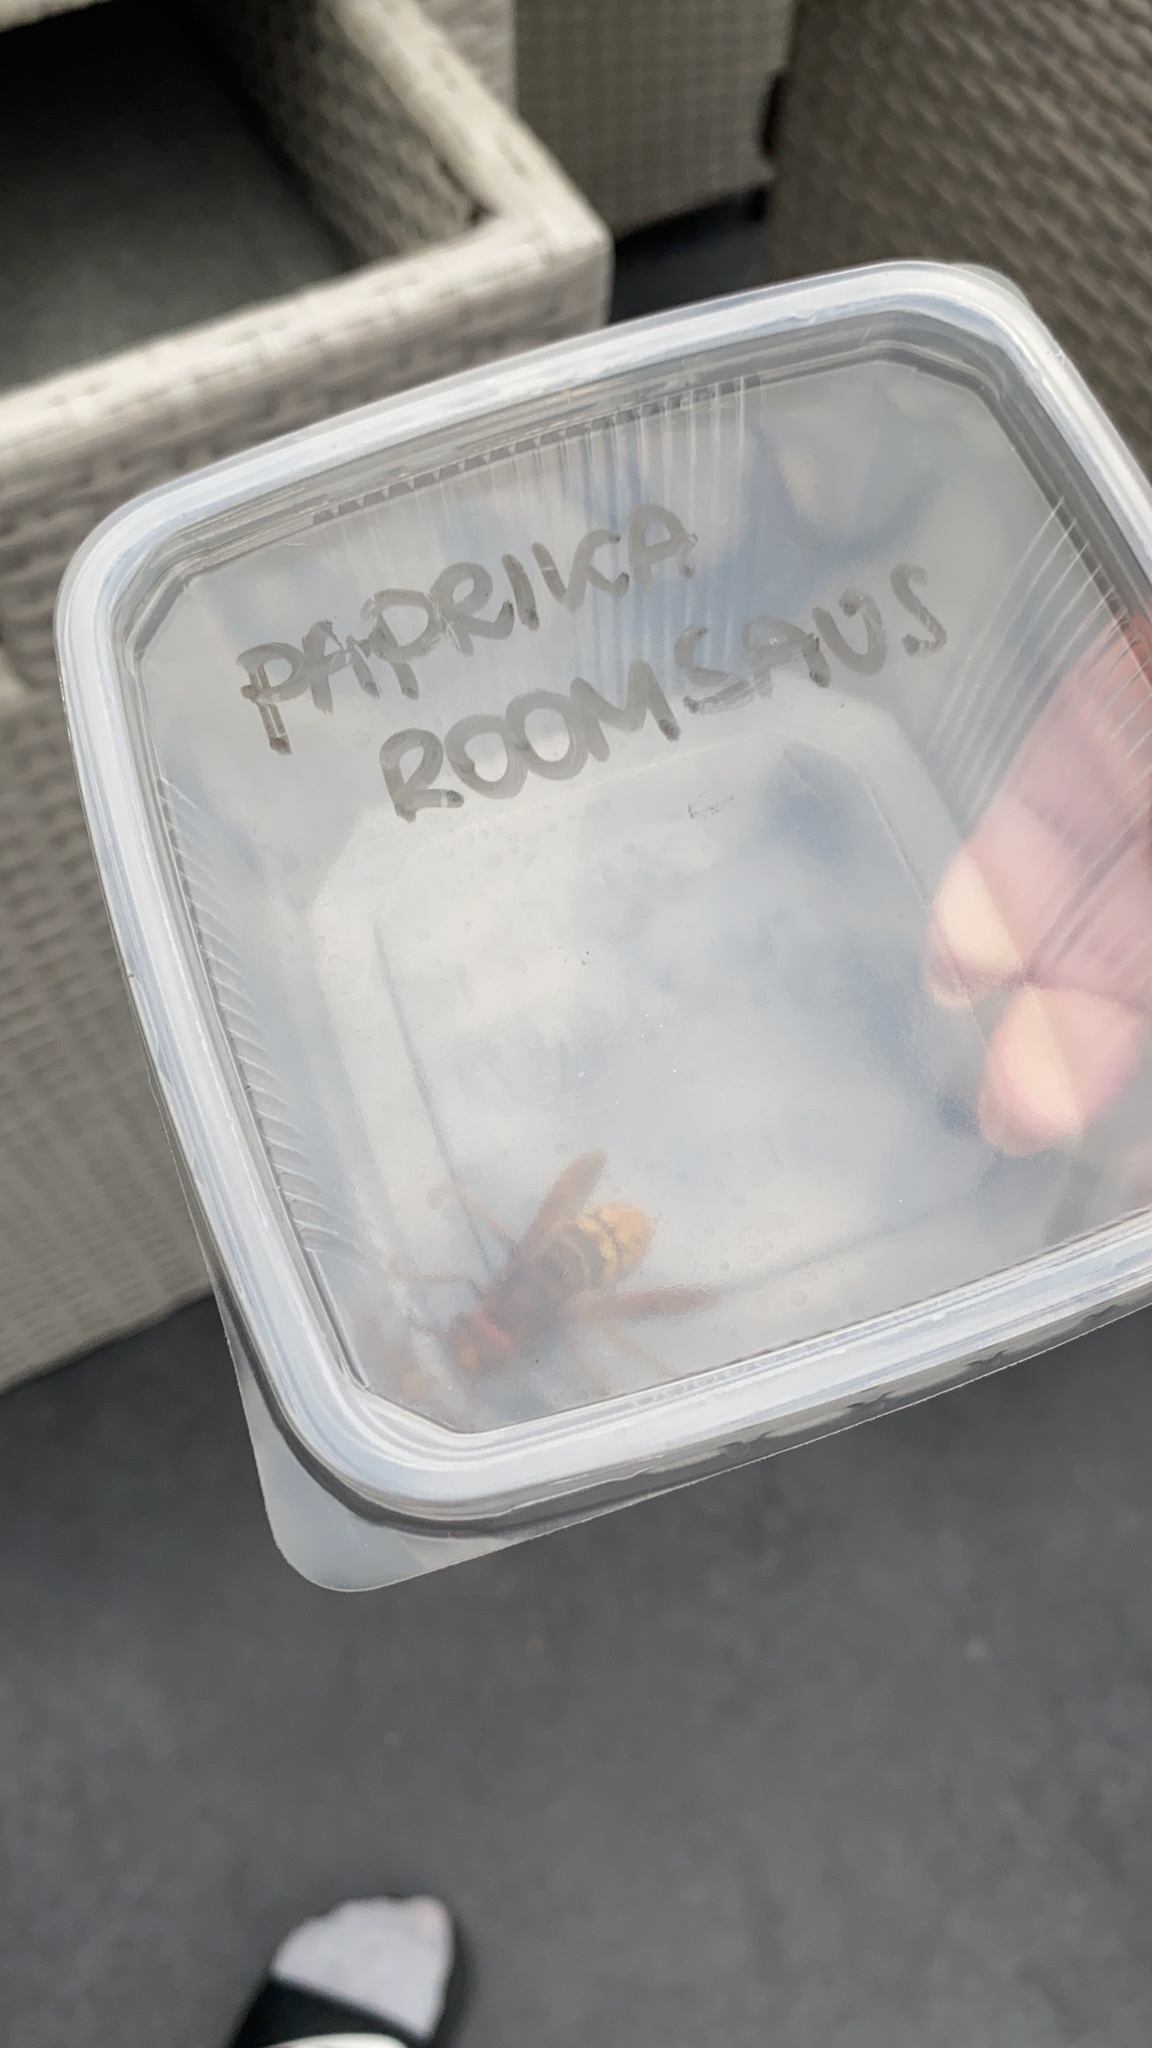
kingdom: Animalia
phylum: Arthropoda
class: Insecta
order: Hymenoptera
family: Vespidae
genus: Vespa
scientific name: Vespa crabro
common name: Hornet
